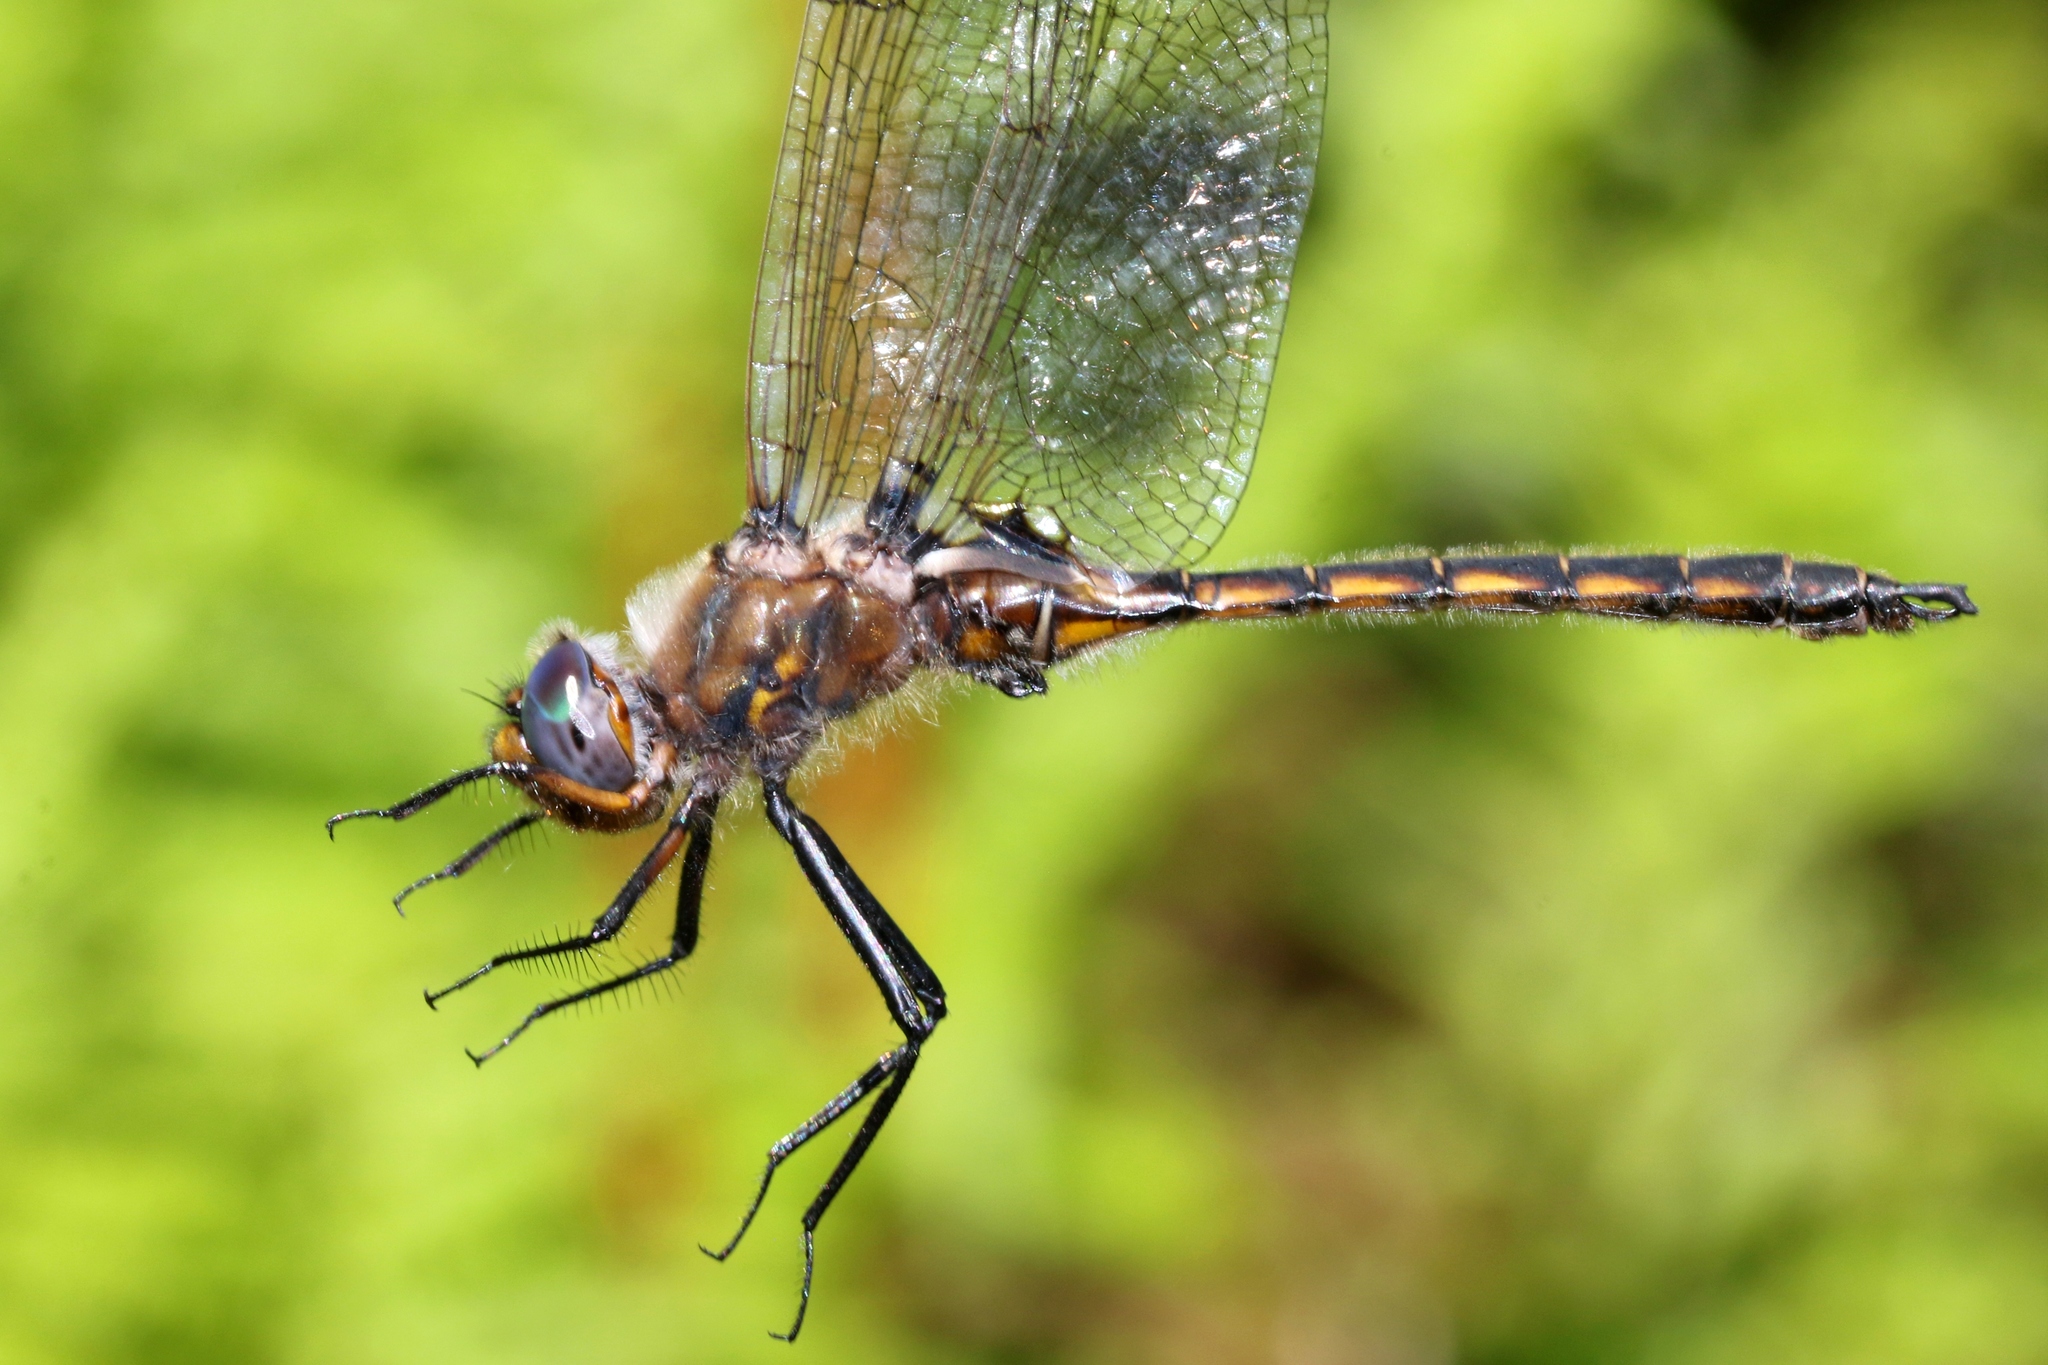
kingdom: Animalia
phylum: Arthropoda
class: Insecta
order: Odonata
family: Corduliidae
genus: Epitheca
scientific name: Epitheca canis
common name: Beaverpond baskettail
